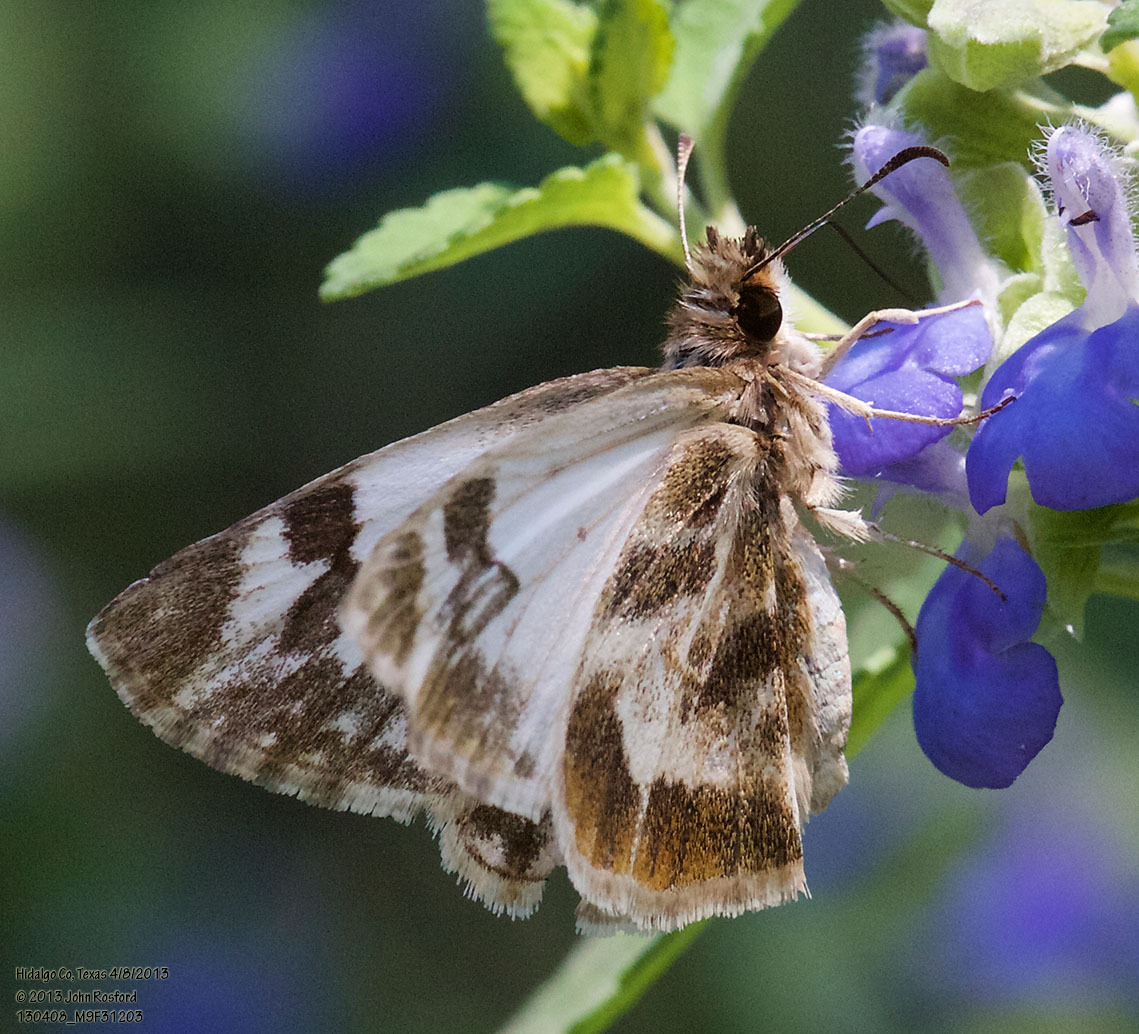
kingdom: Animalia
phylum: Arthropoda
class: Insecta
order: Lepidoptera
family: Hesperiidae
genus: Heliopetes
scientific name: Heliopetes macaira
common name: Turk's-cap white-skipper
